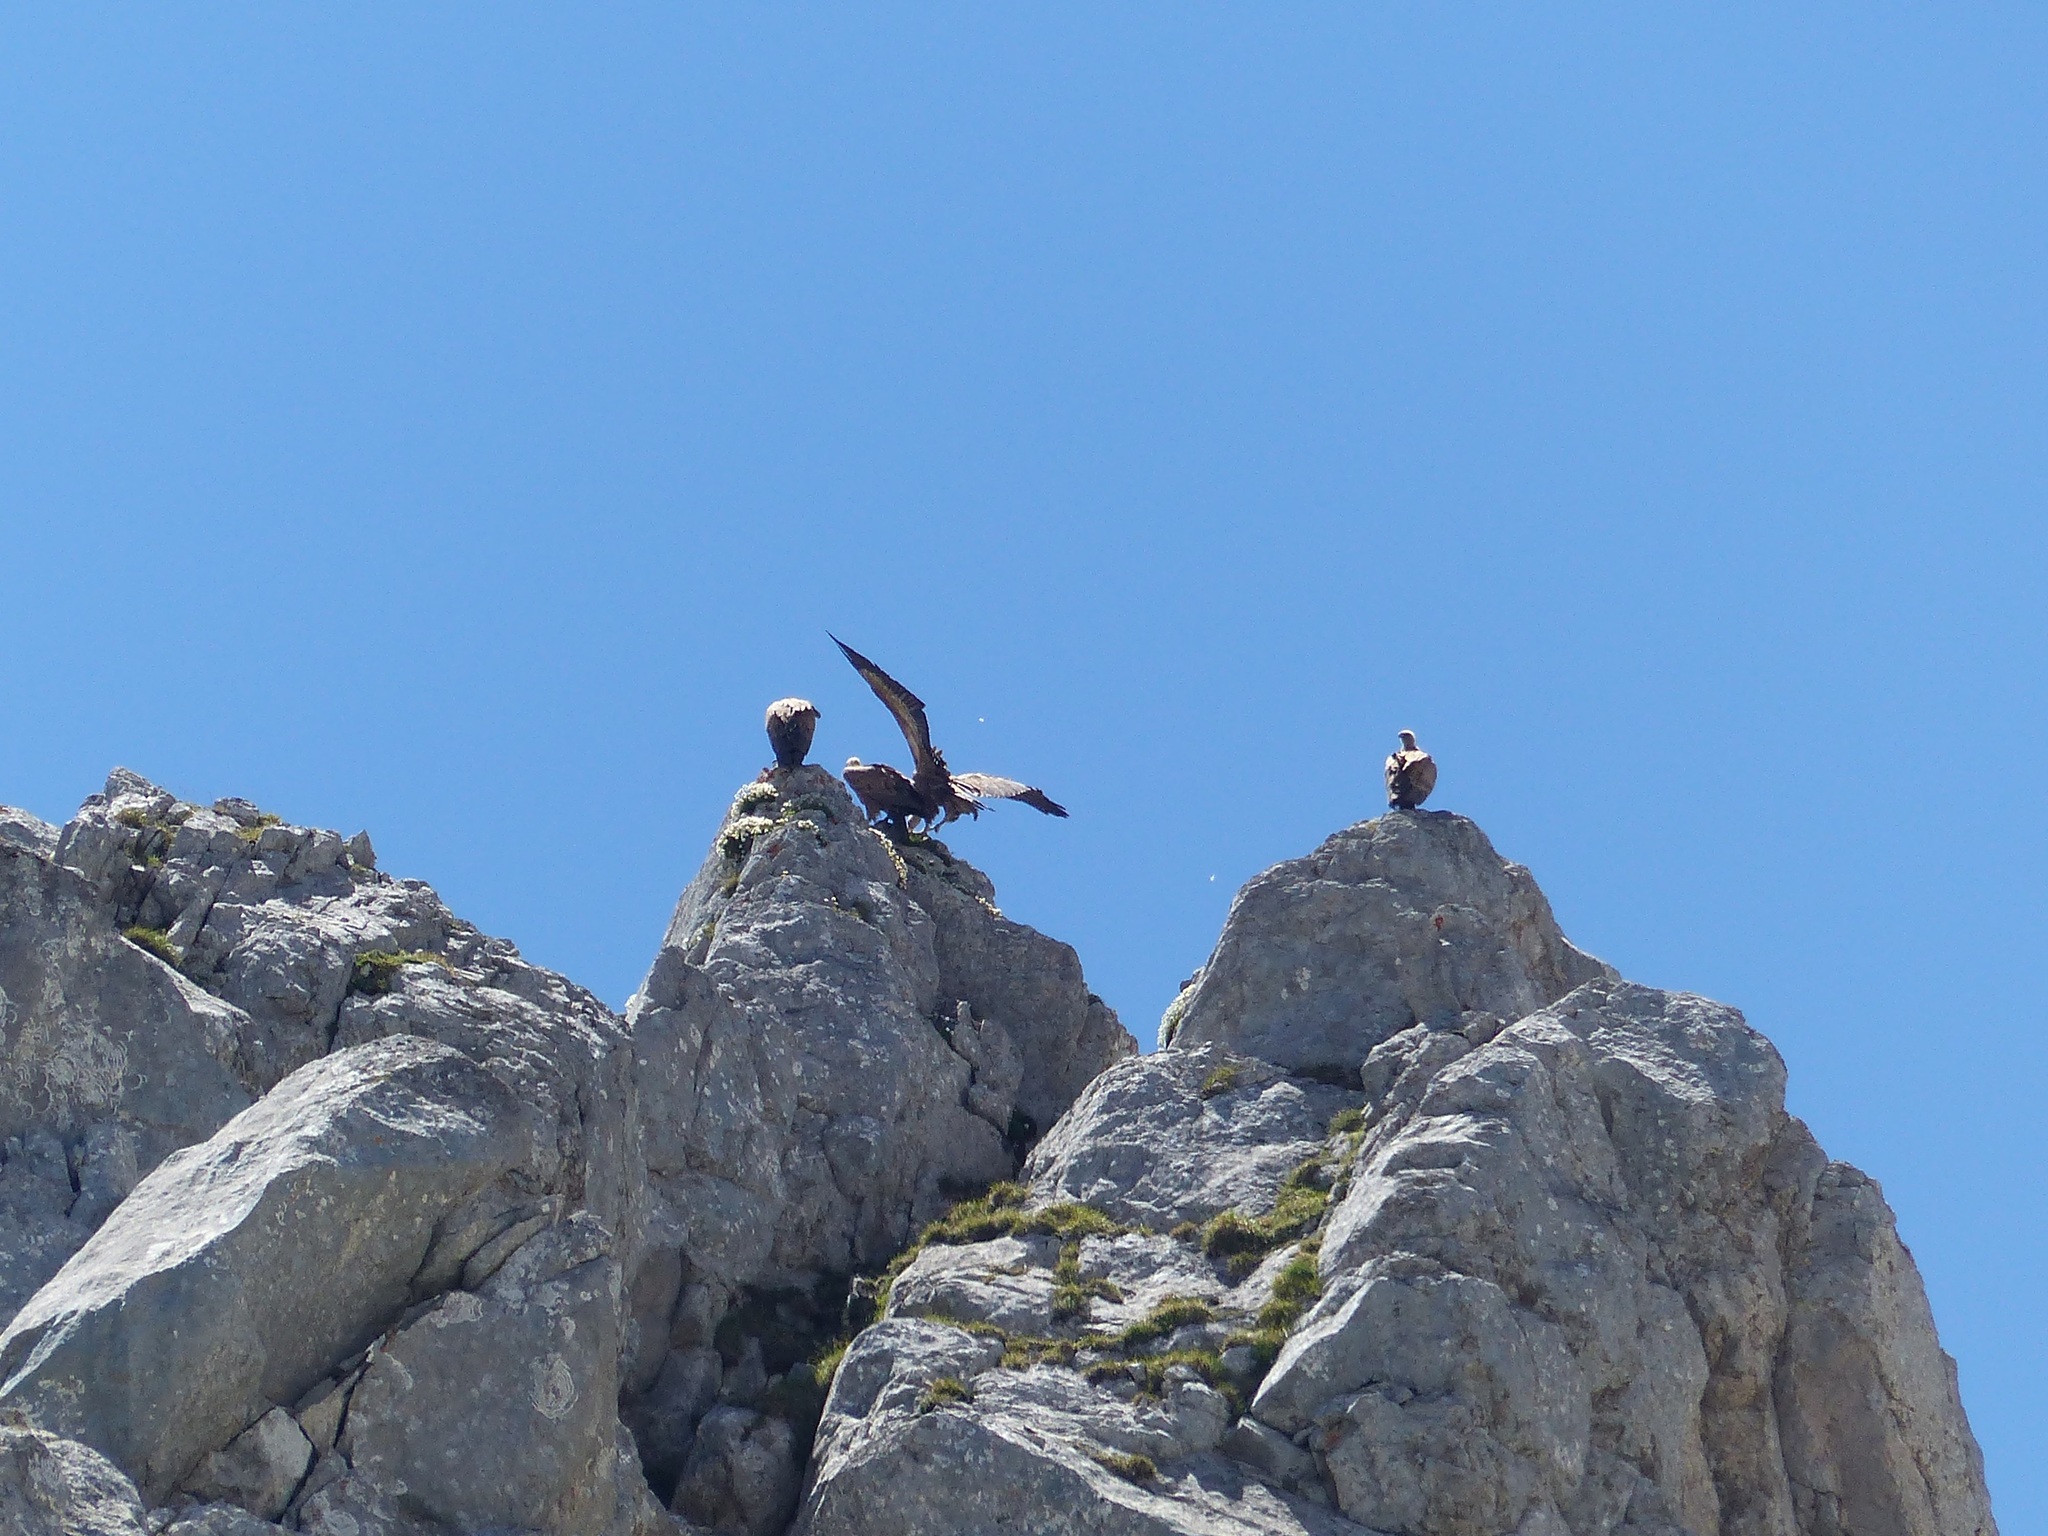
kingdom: Animalia
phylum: Chordata
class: Aves
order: Accipitriformes
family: Accipitridae
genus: Gyps
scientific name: Gyps fulvus
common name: Griffon vulture
